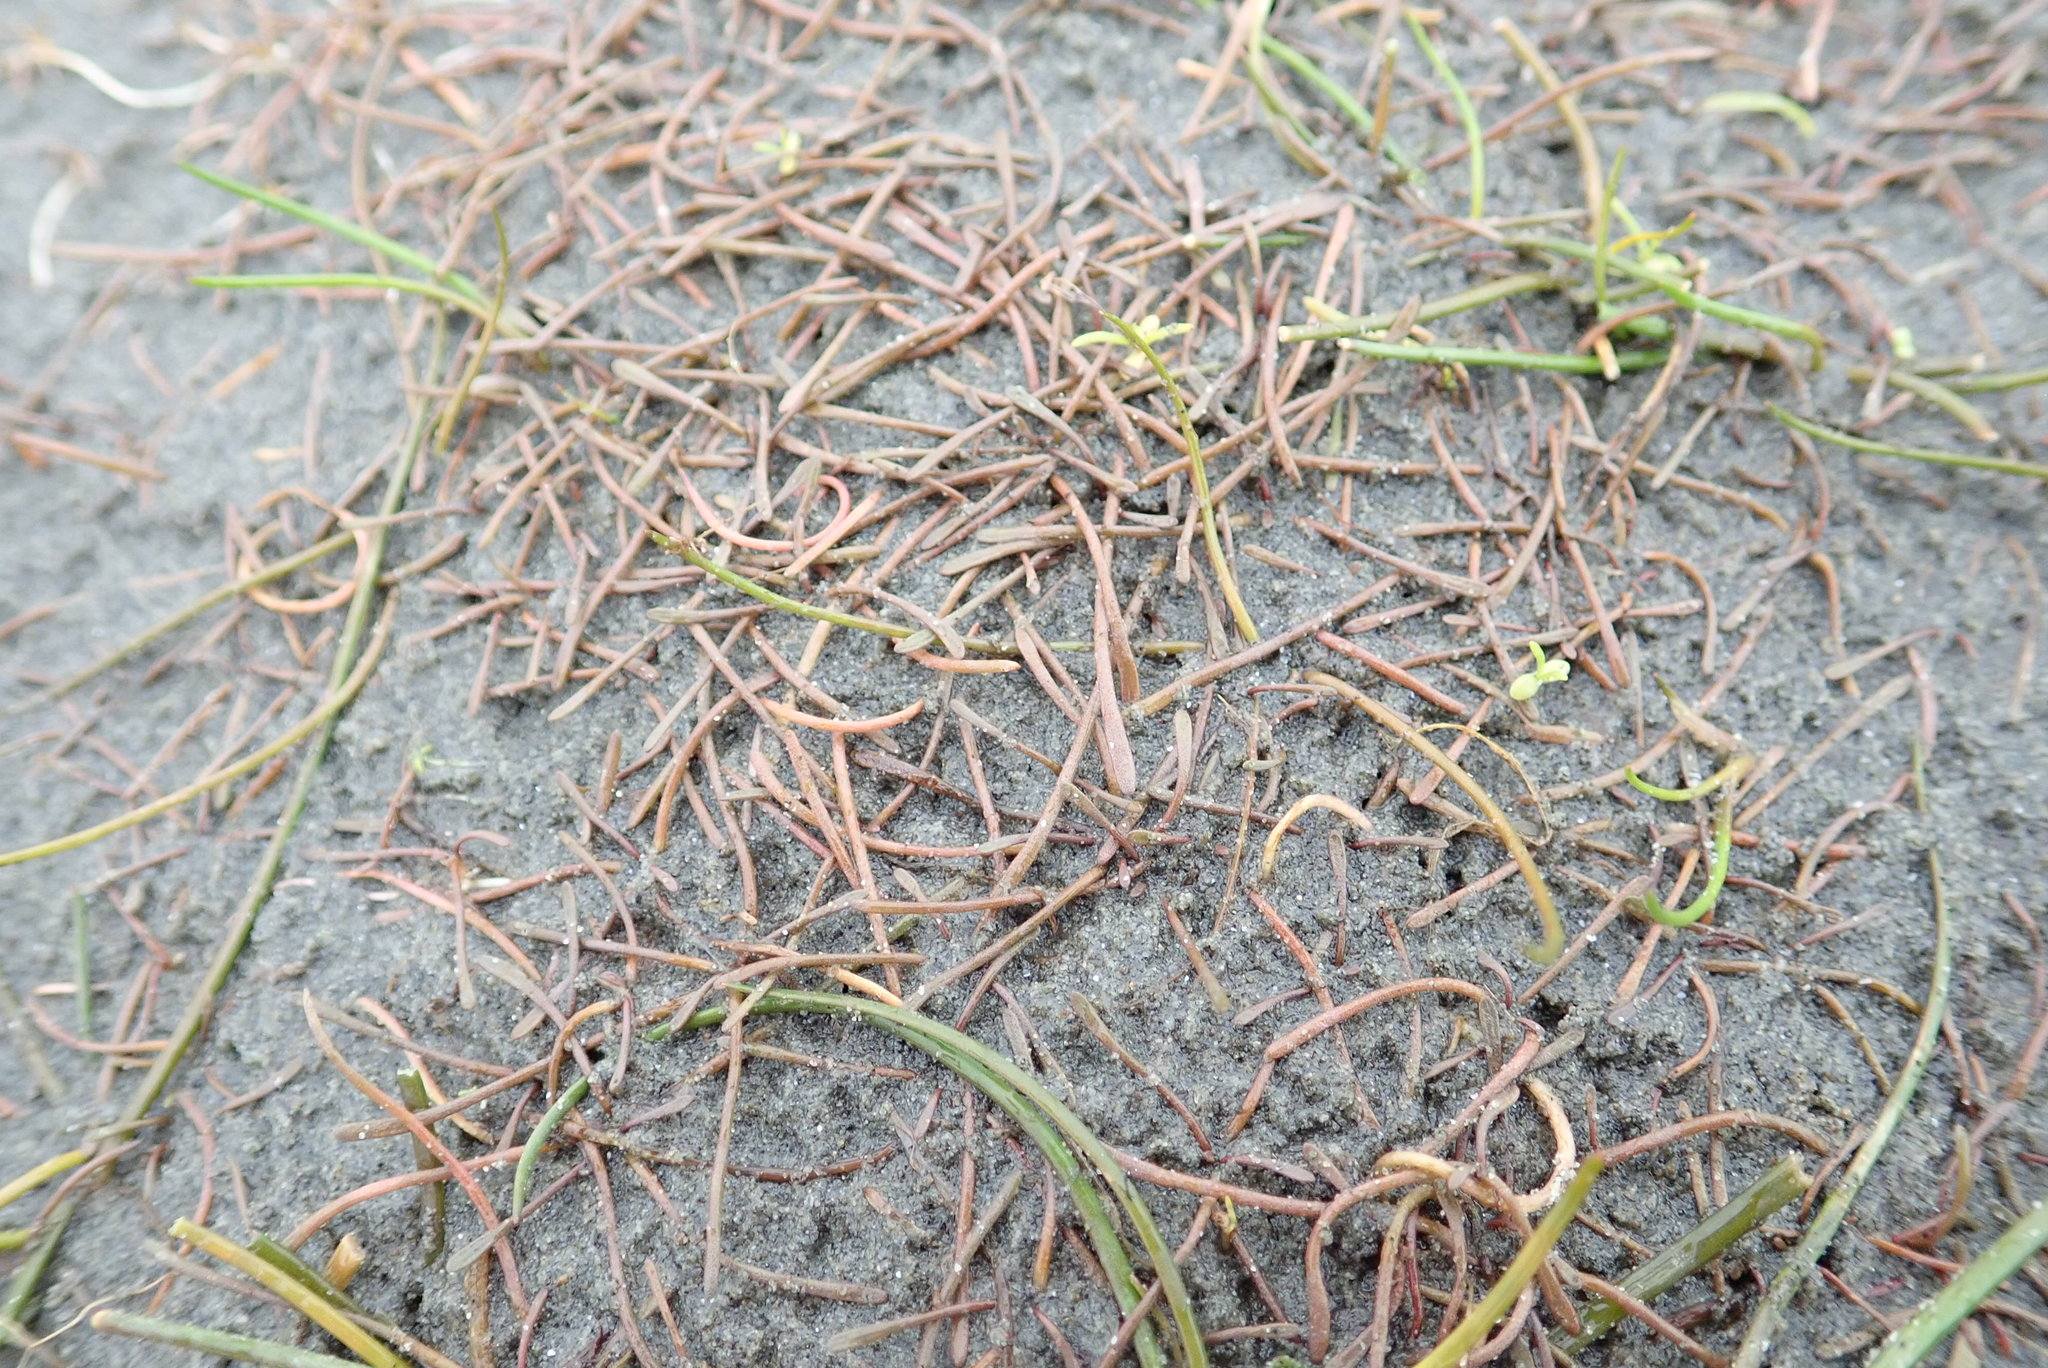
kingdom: Plantae
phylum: Tracheophyta
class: Magnoliopsida
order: Lamiales
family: Scrophulariaceae
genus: Limosella
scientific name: Limosella australis
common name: Welsh mudwort
